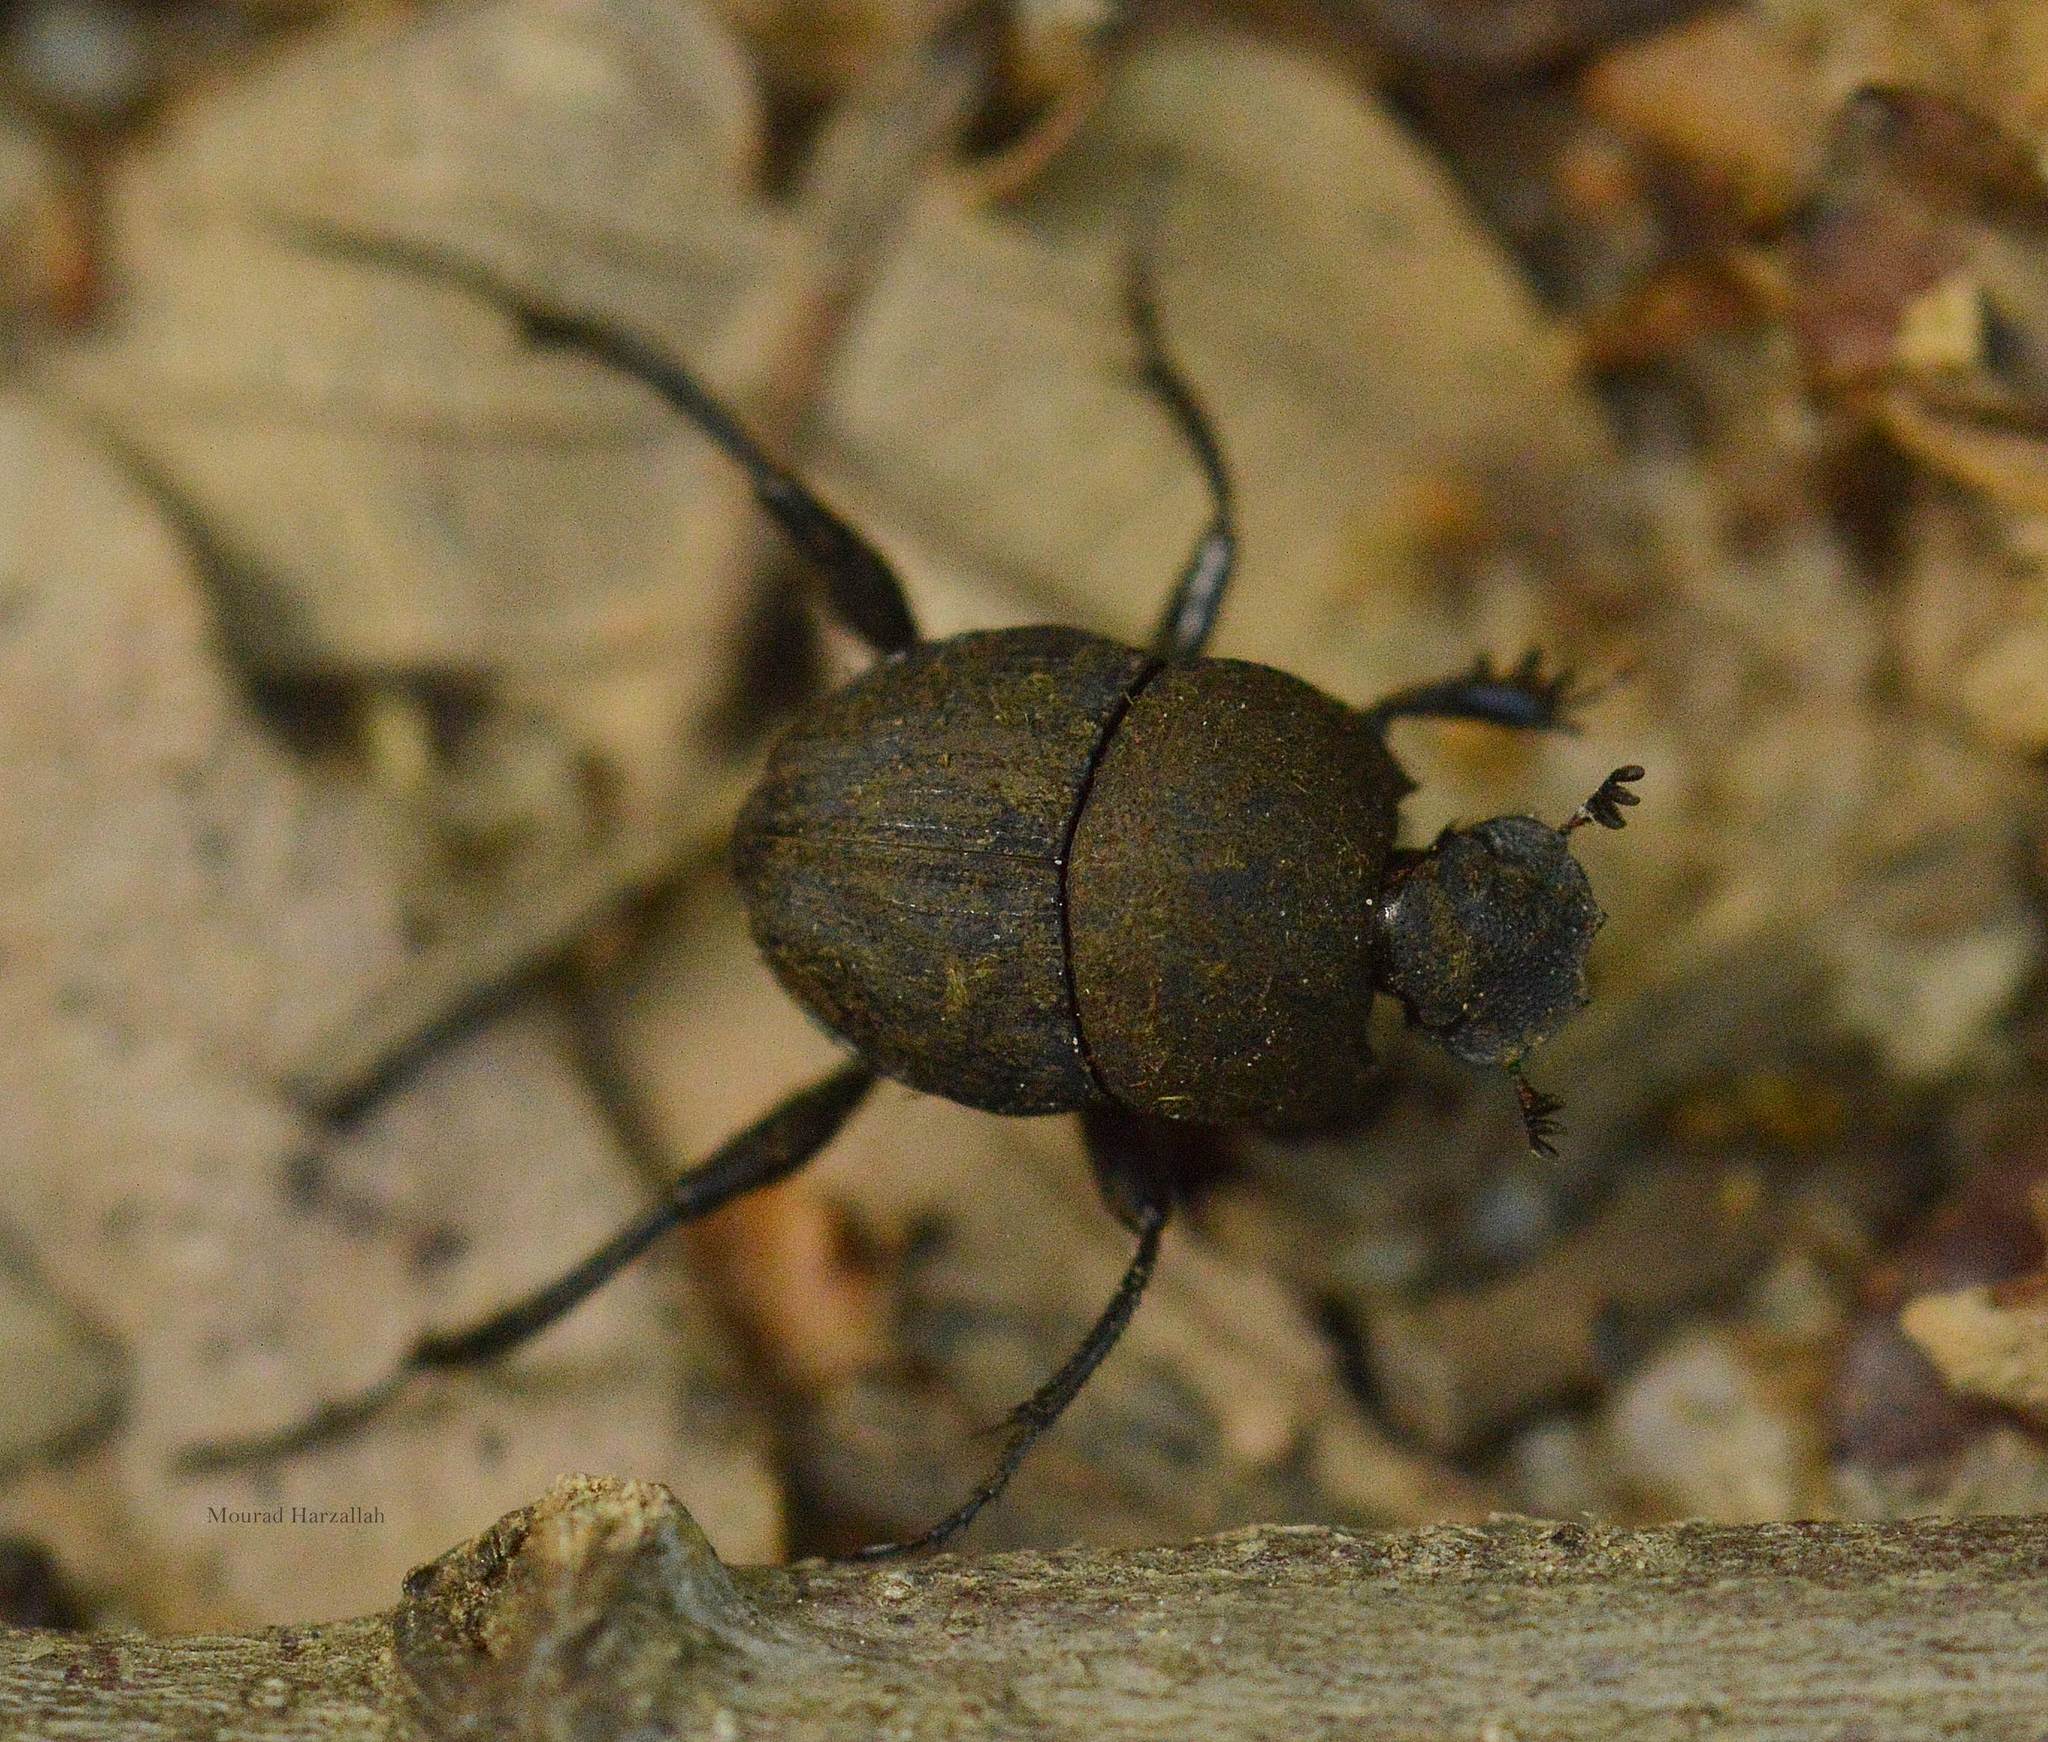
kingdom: Animalia
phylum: Arthropoda
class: Insecta
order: Coleoptera
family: Scarabaeidae
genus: Sisyphus
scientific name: Sisyphus schaefferi
